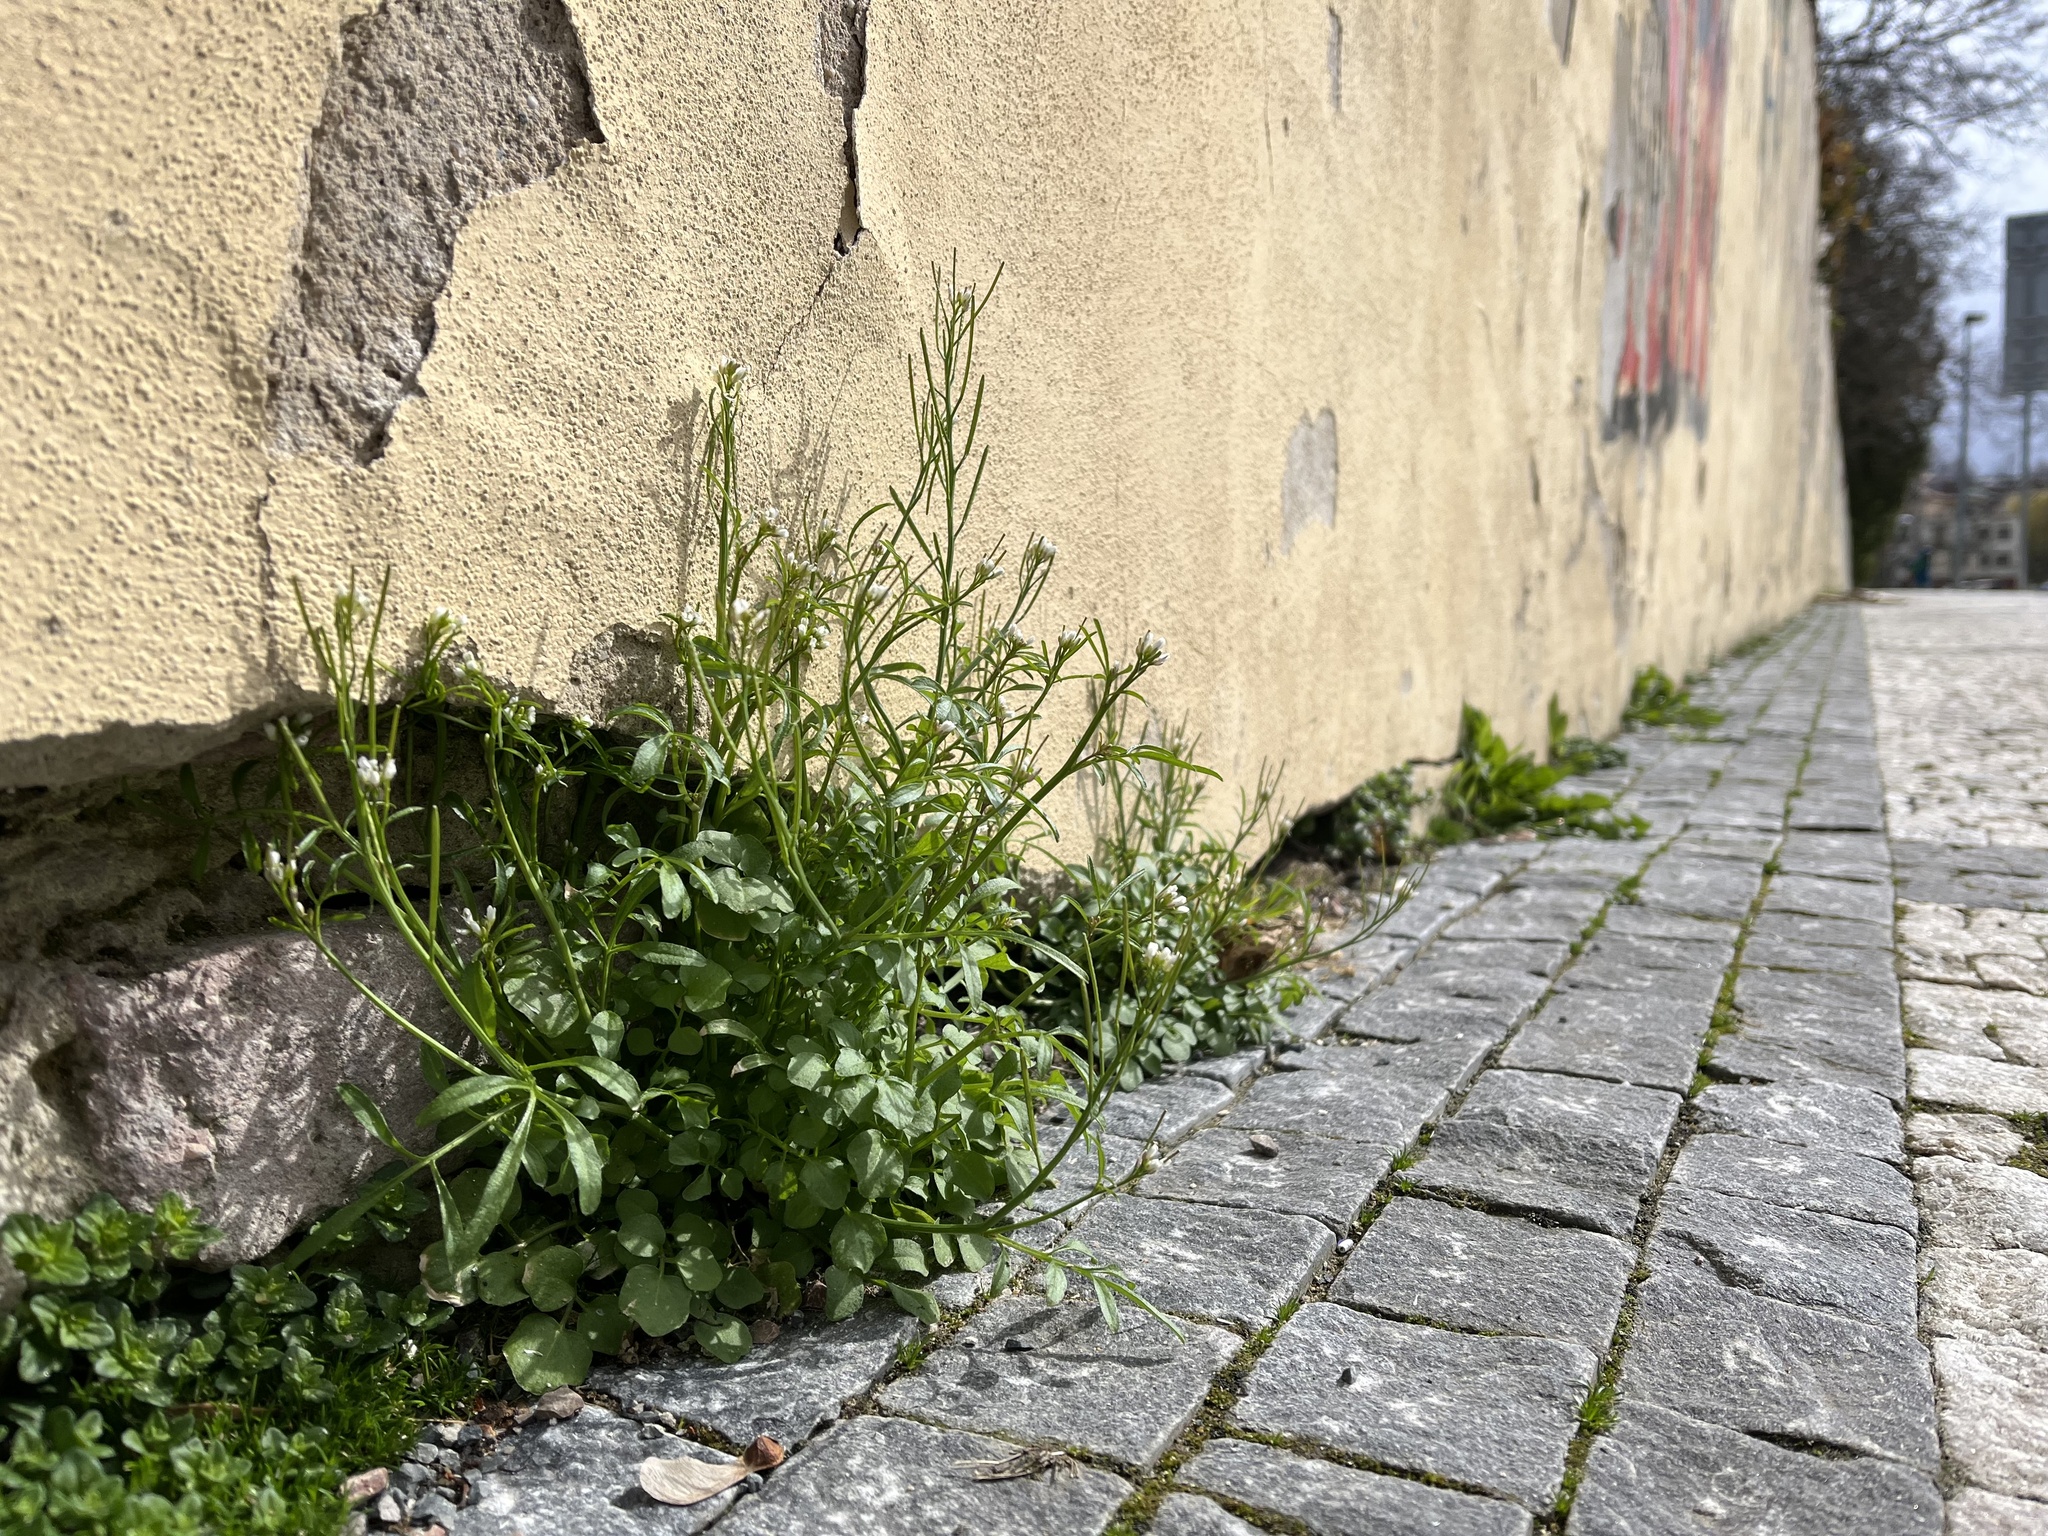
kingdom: Plantae
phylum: Tracheophyta
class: Magnoliopsida
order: Brassicales
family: Brassicaceae
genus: Cardamine
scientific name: Cardamine hirsuta
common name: Hairy bittercress
